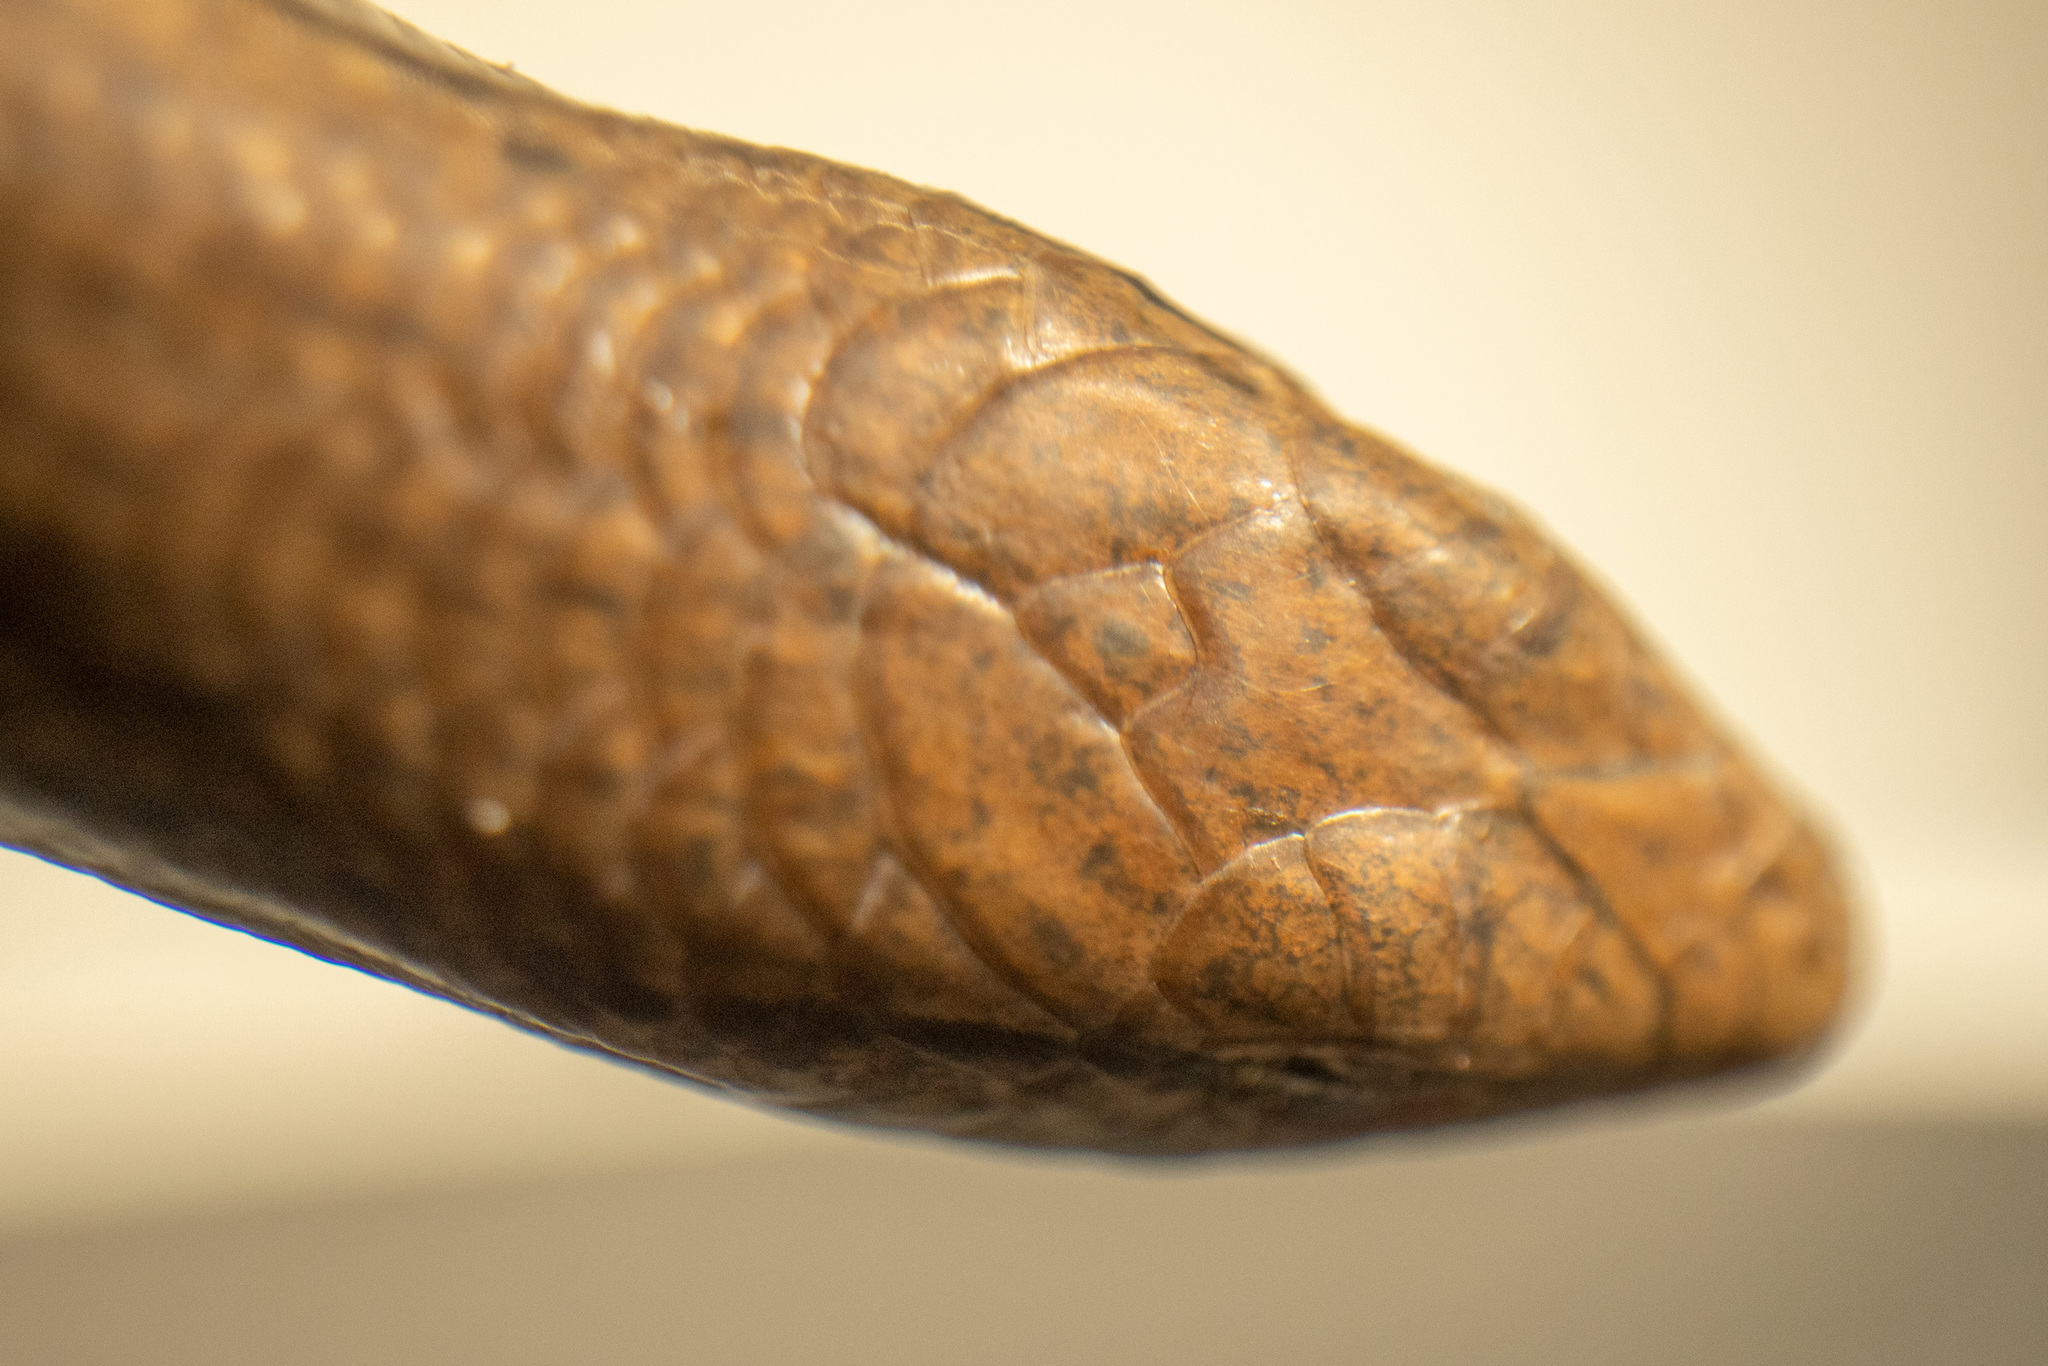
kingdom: Animalia
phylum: Chordata
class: Squamata
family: Scincidae
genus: Lampropholis
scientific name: Lampropholis delicata
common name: Plague skink
